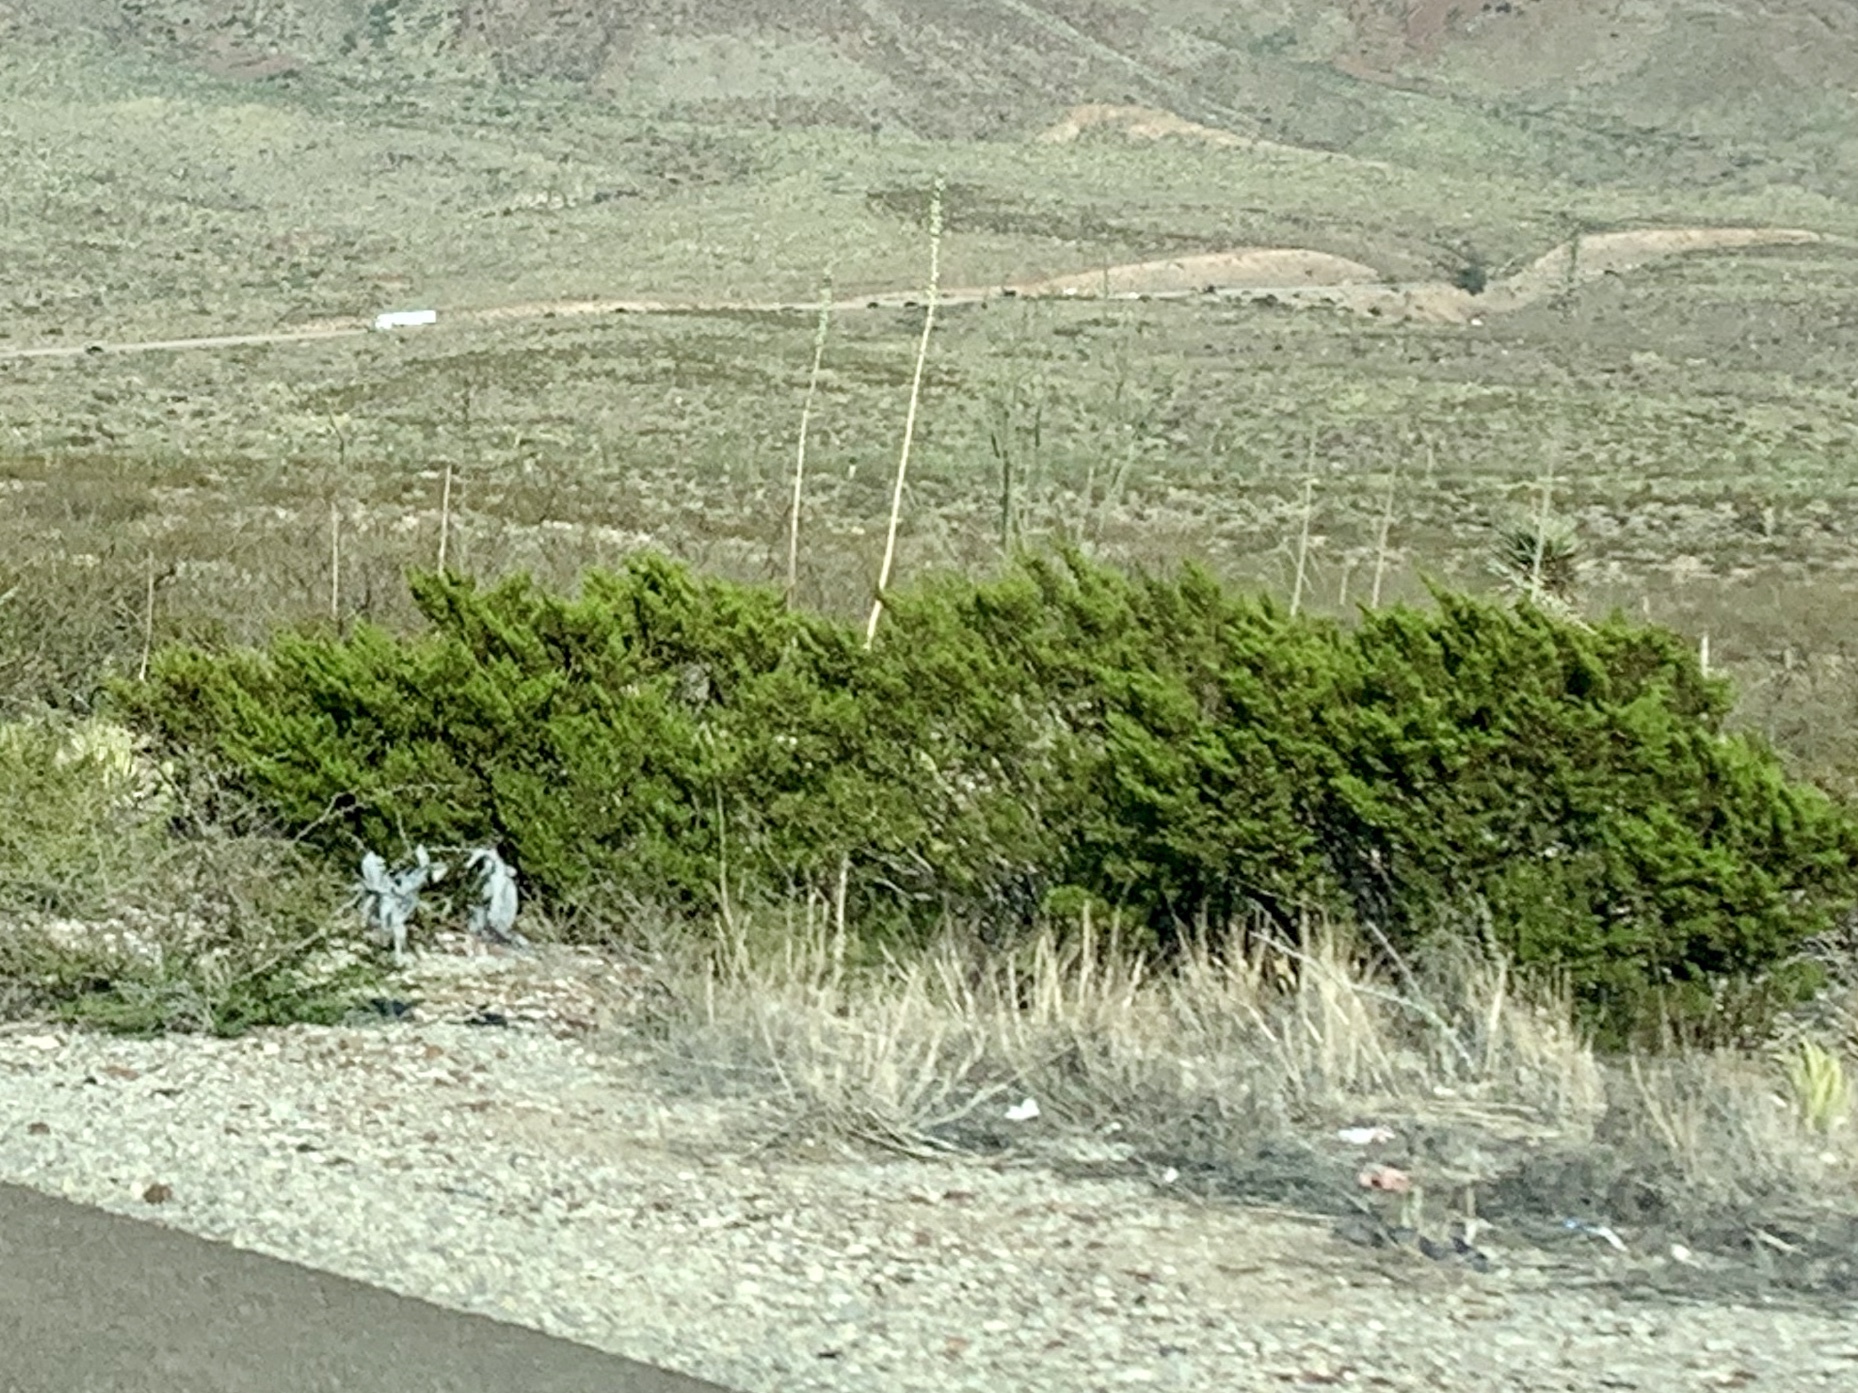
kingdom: Plantae
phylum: Tracheophyta
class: Magnoliopsida
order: Zygophyllales
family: Zygophyllaceae
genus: Larrea
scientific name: Larrea tridentata
